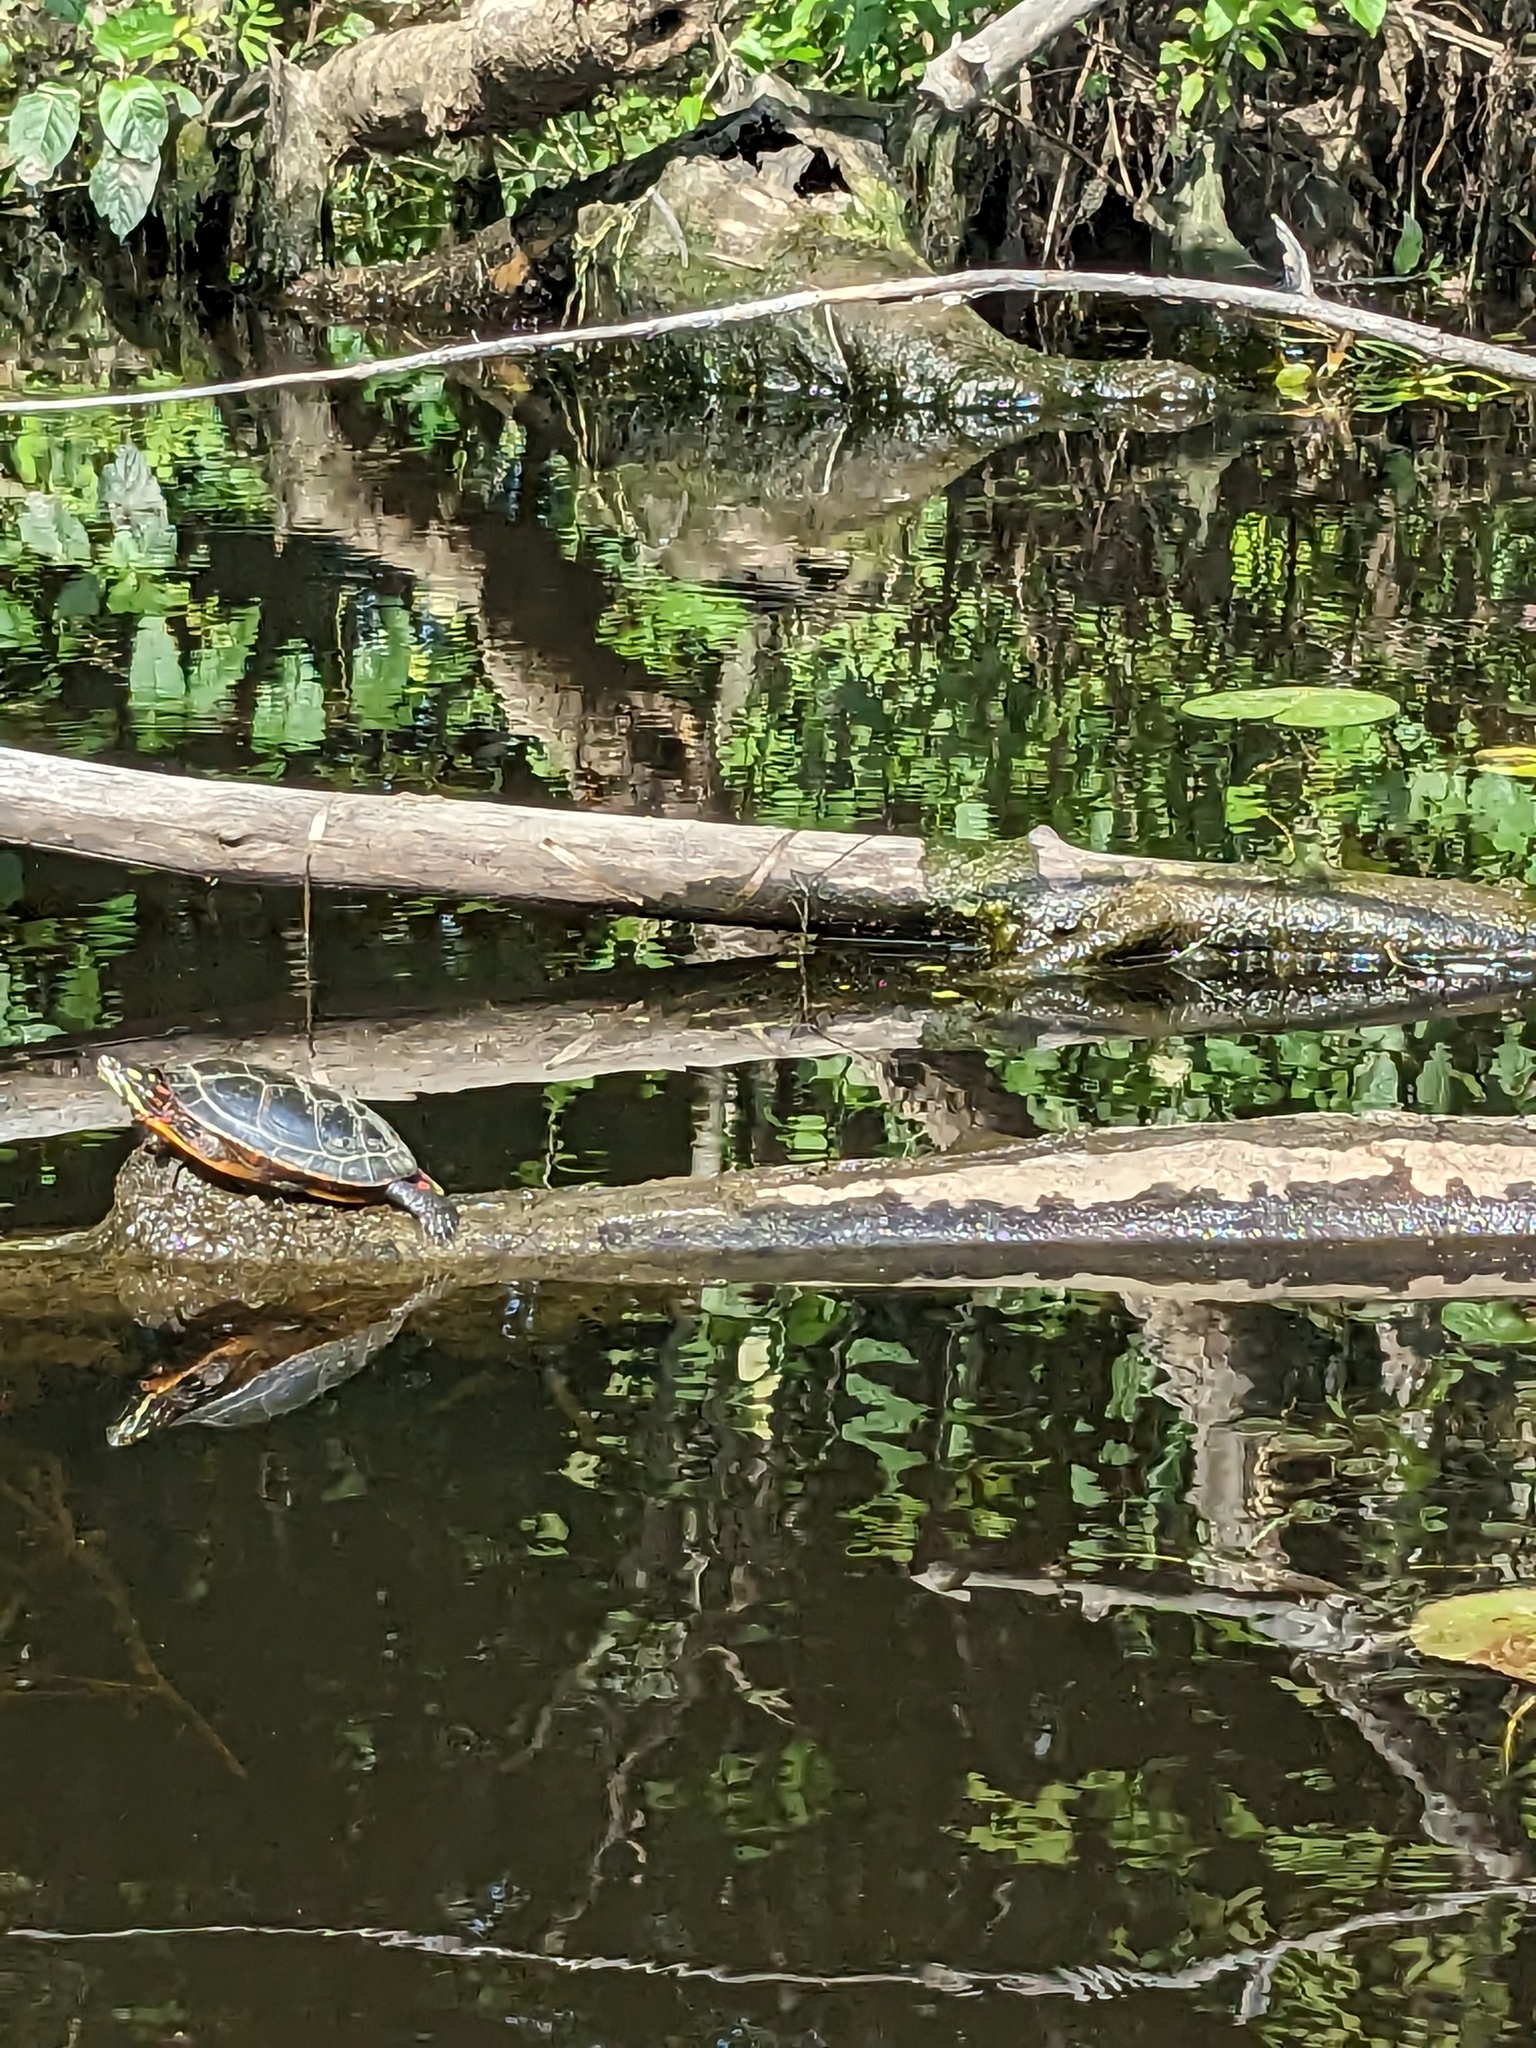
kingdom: Animalia
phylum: Chordata
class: Testudines
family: Emydidae
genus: Chrysemys
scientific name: Chrysemys picta
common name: Painted turtle
